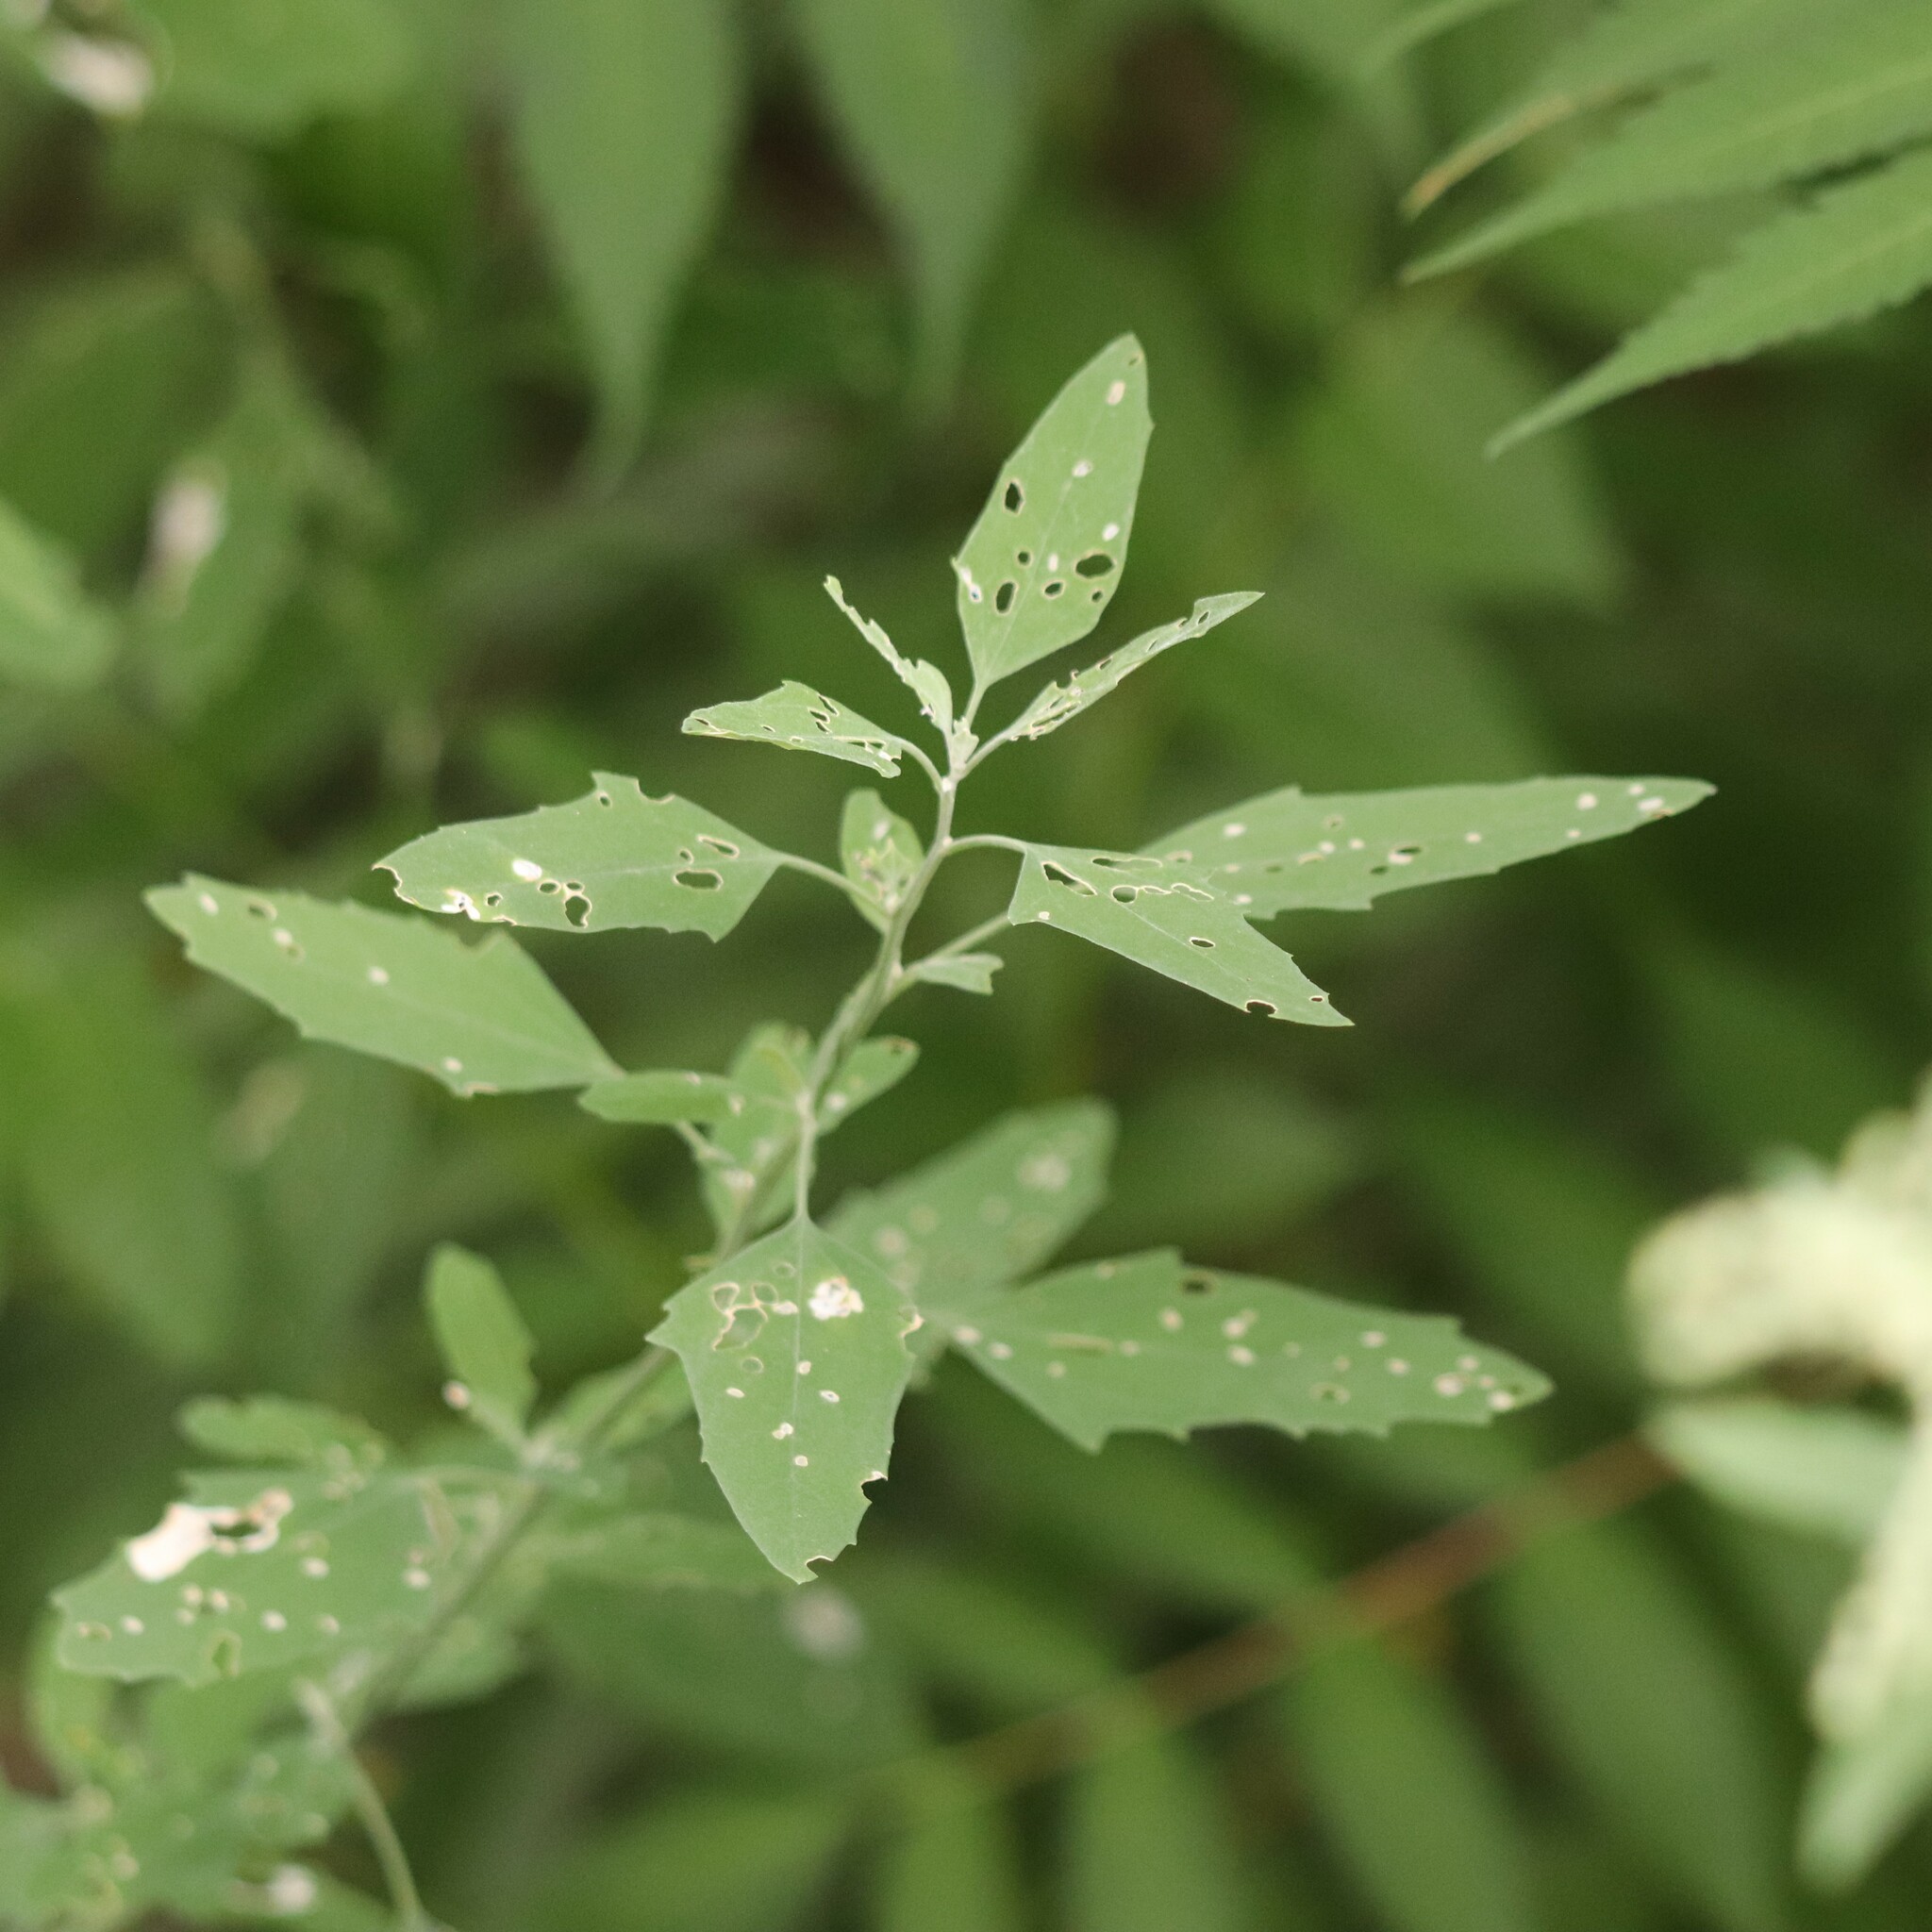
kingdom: Plantae
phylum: Tracheophyta
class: Magnoliopsida
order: Caryophyllales
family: Amaranthaceae
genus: Chenopodium
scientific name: Chenopodium album
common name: Fat-hen
